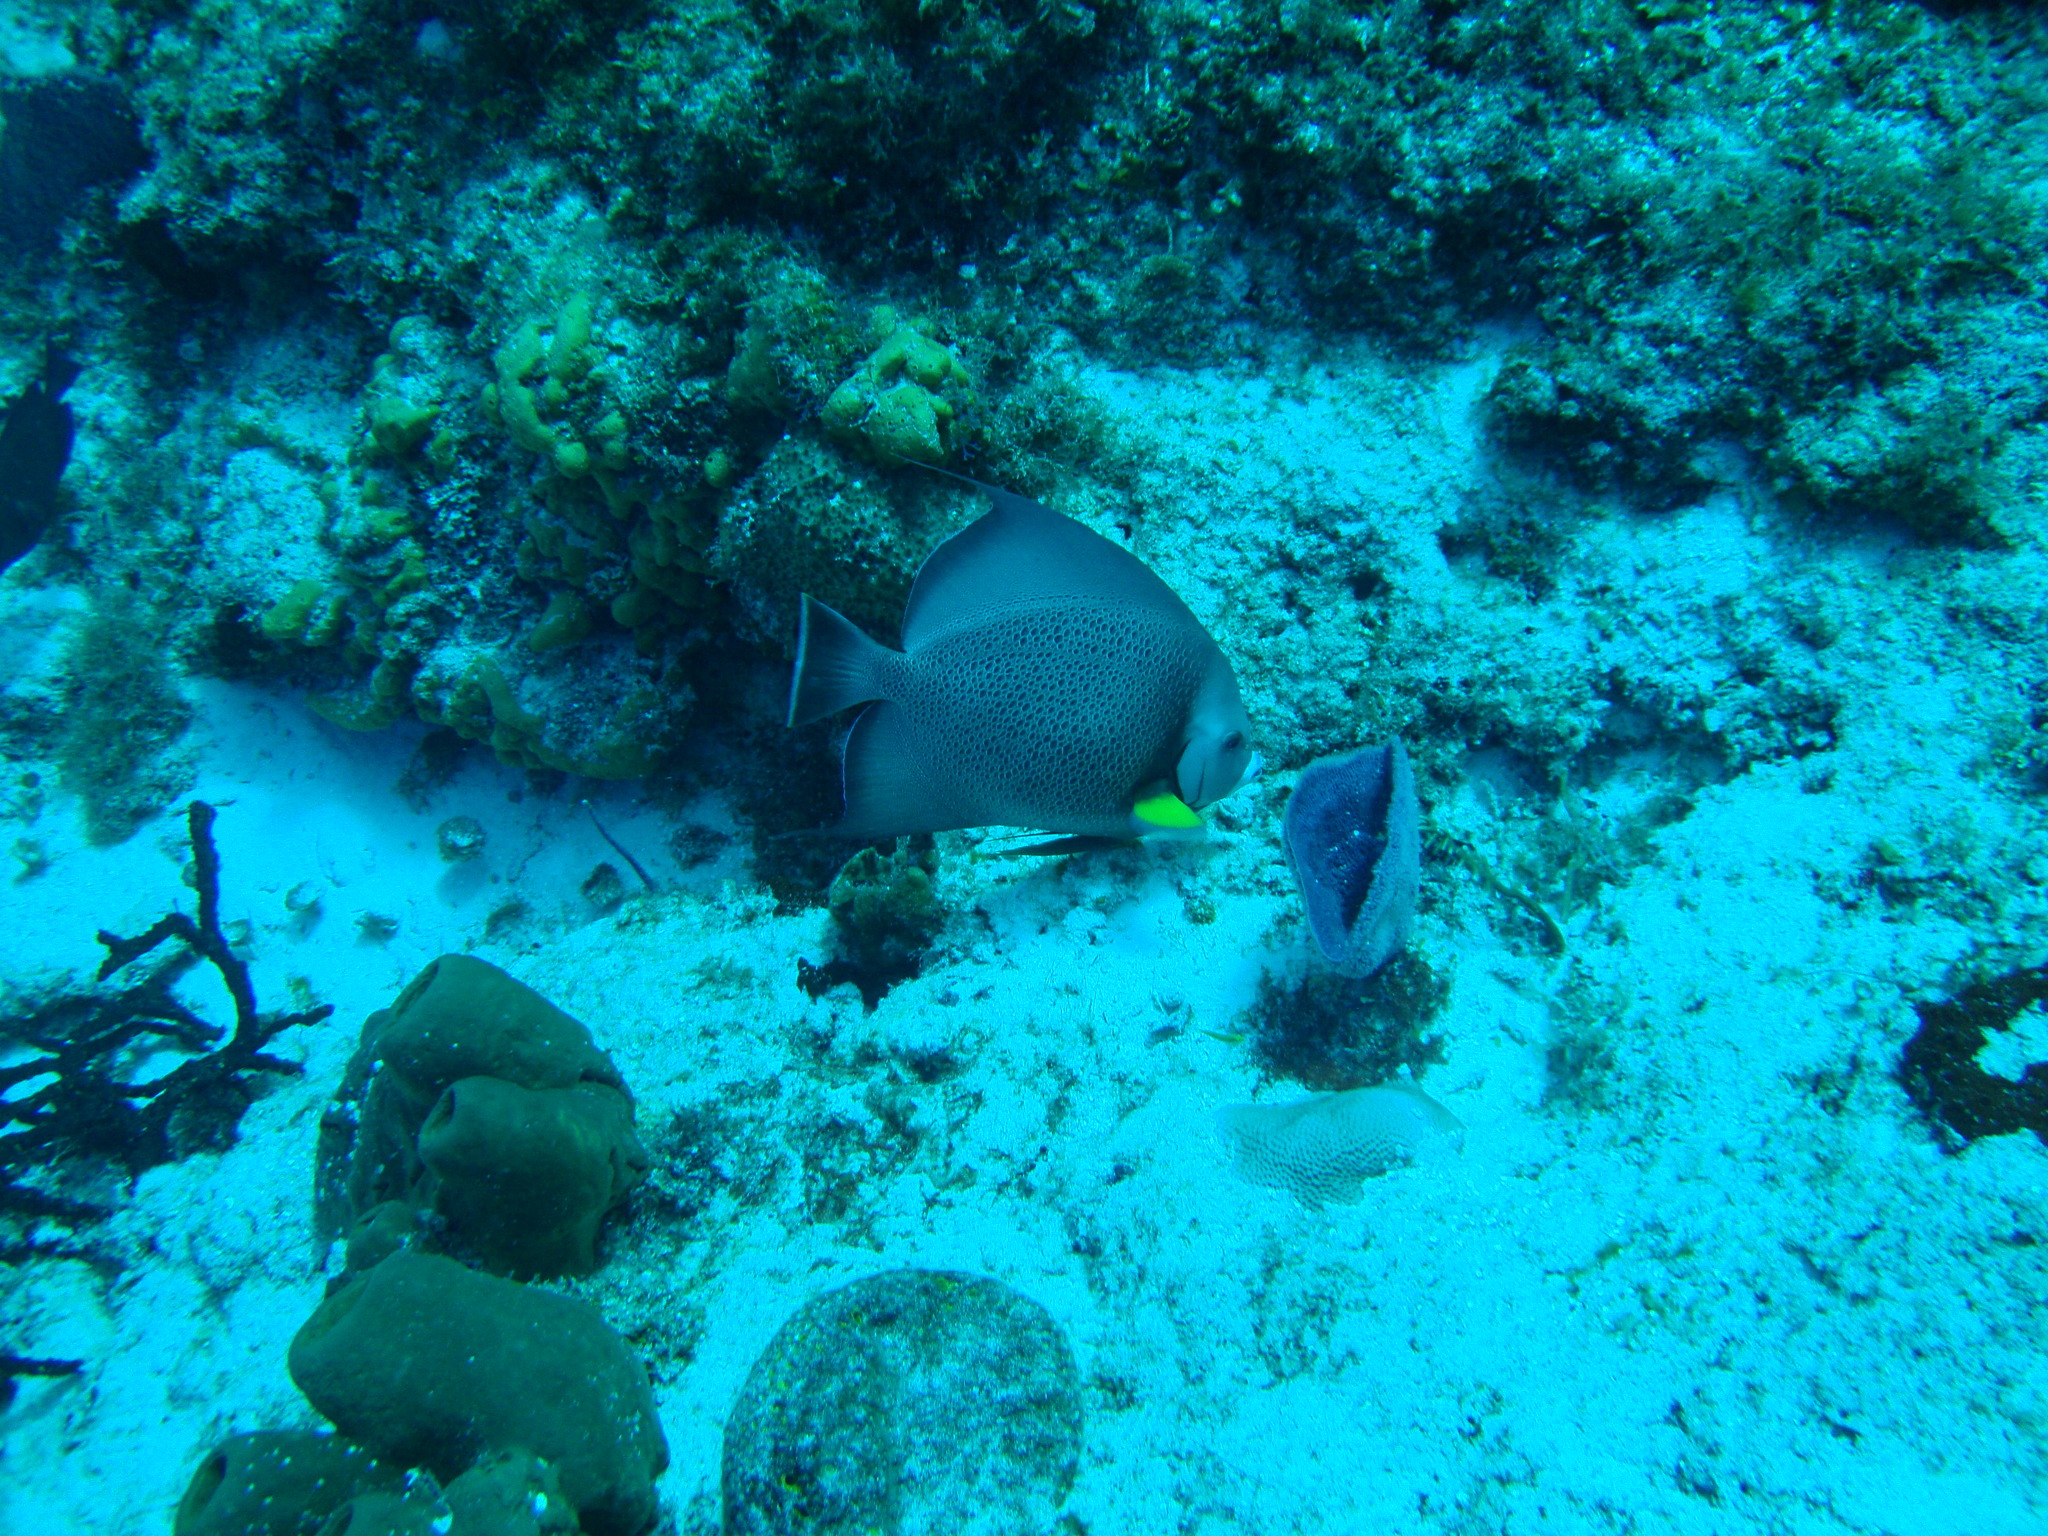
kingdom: Animalia
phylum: Chordata
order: Perciformes
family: Pomacanthidae
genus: Pomacanthus
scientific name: Pomacanthus arcuatus
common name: Gray angelfish
